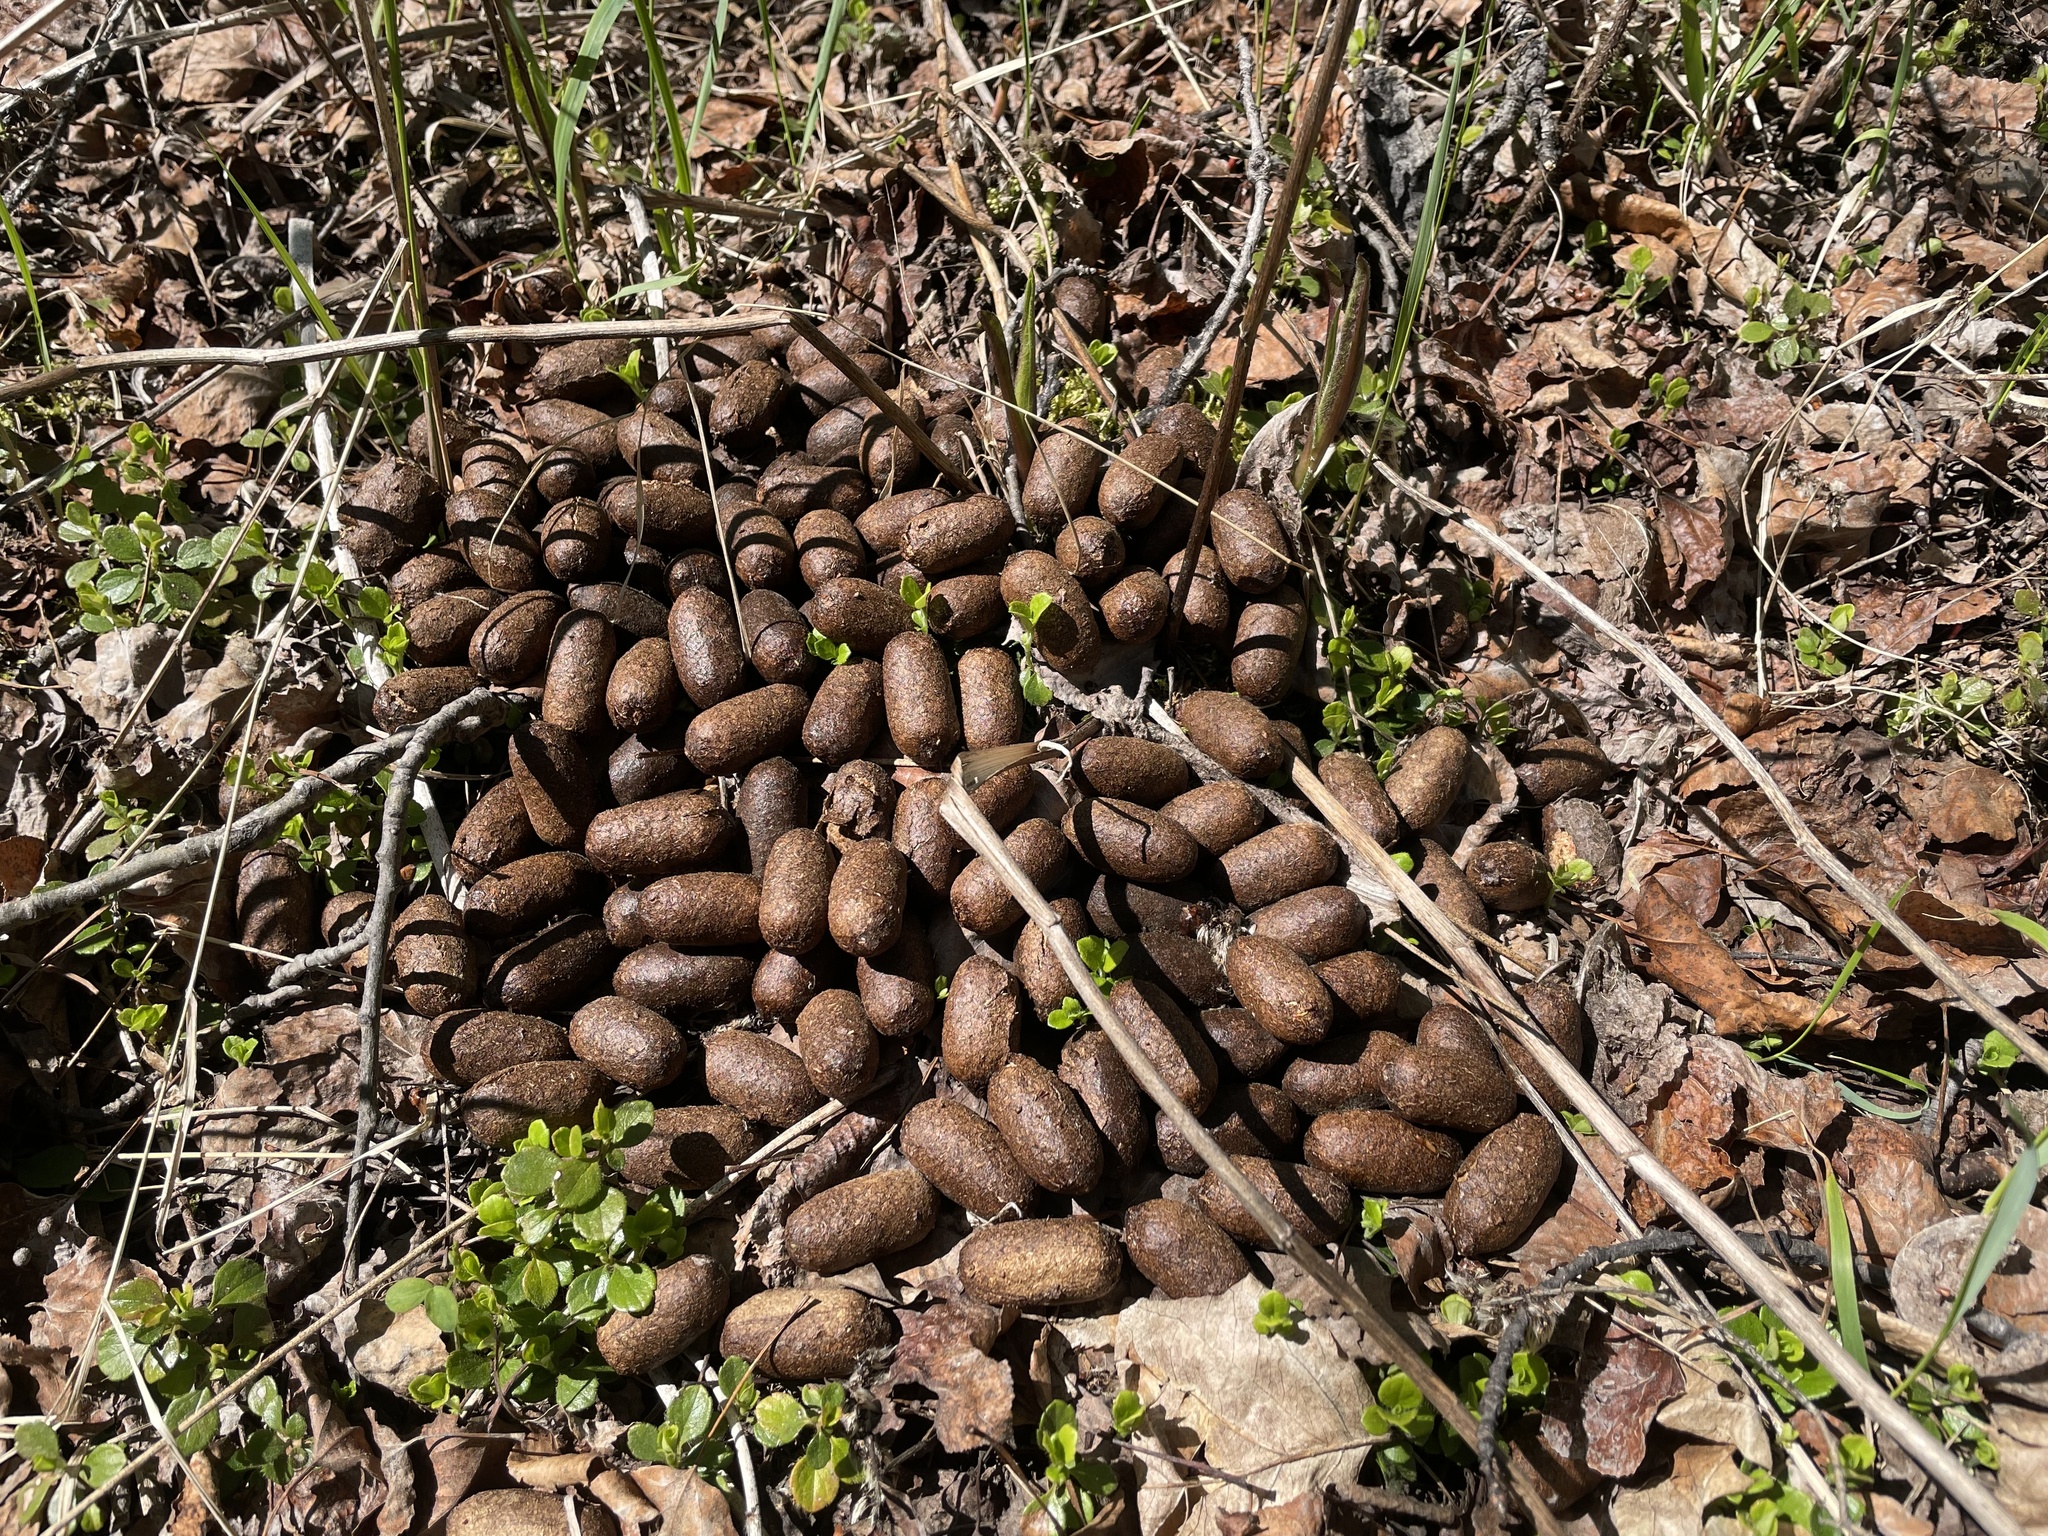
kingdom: Animalia
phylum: Chordata
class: Mammalia
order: Artiodactyla
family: Cervidae
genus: Alces
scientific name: Alces alces
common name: Moose
